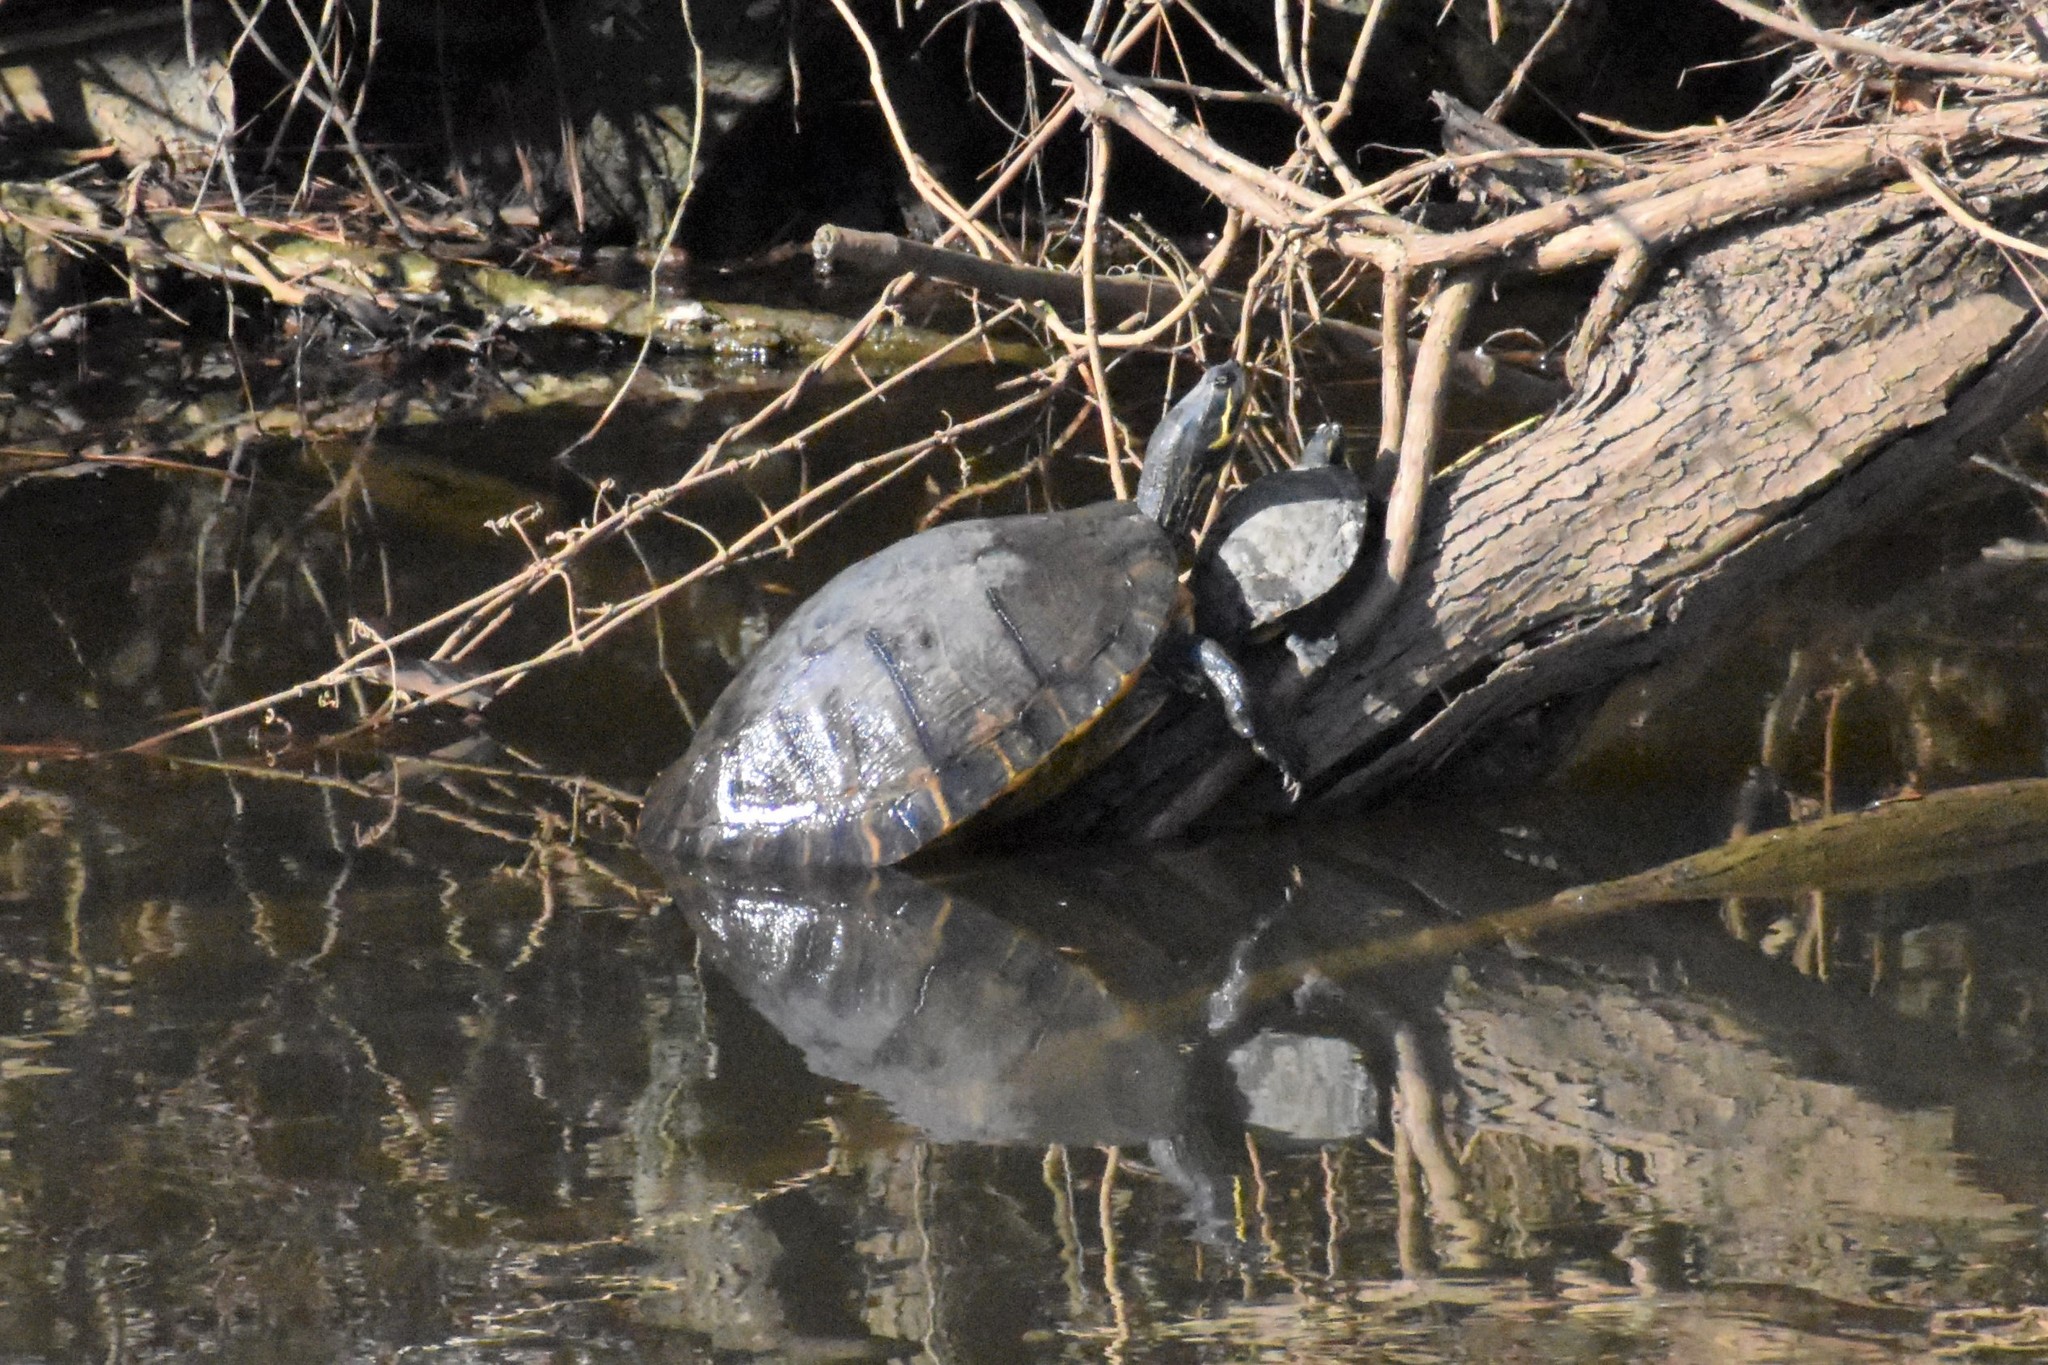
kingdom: Animalia
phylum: Chordata
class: Testudines
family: Emydidae
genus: Pseudemys
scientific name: Pseudemys concinna
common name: Eastern river cooter
